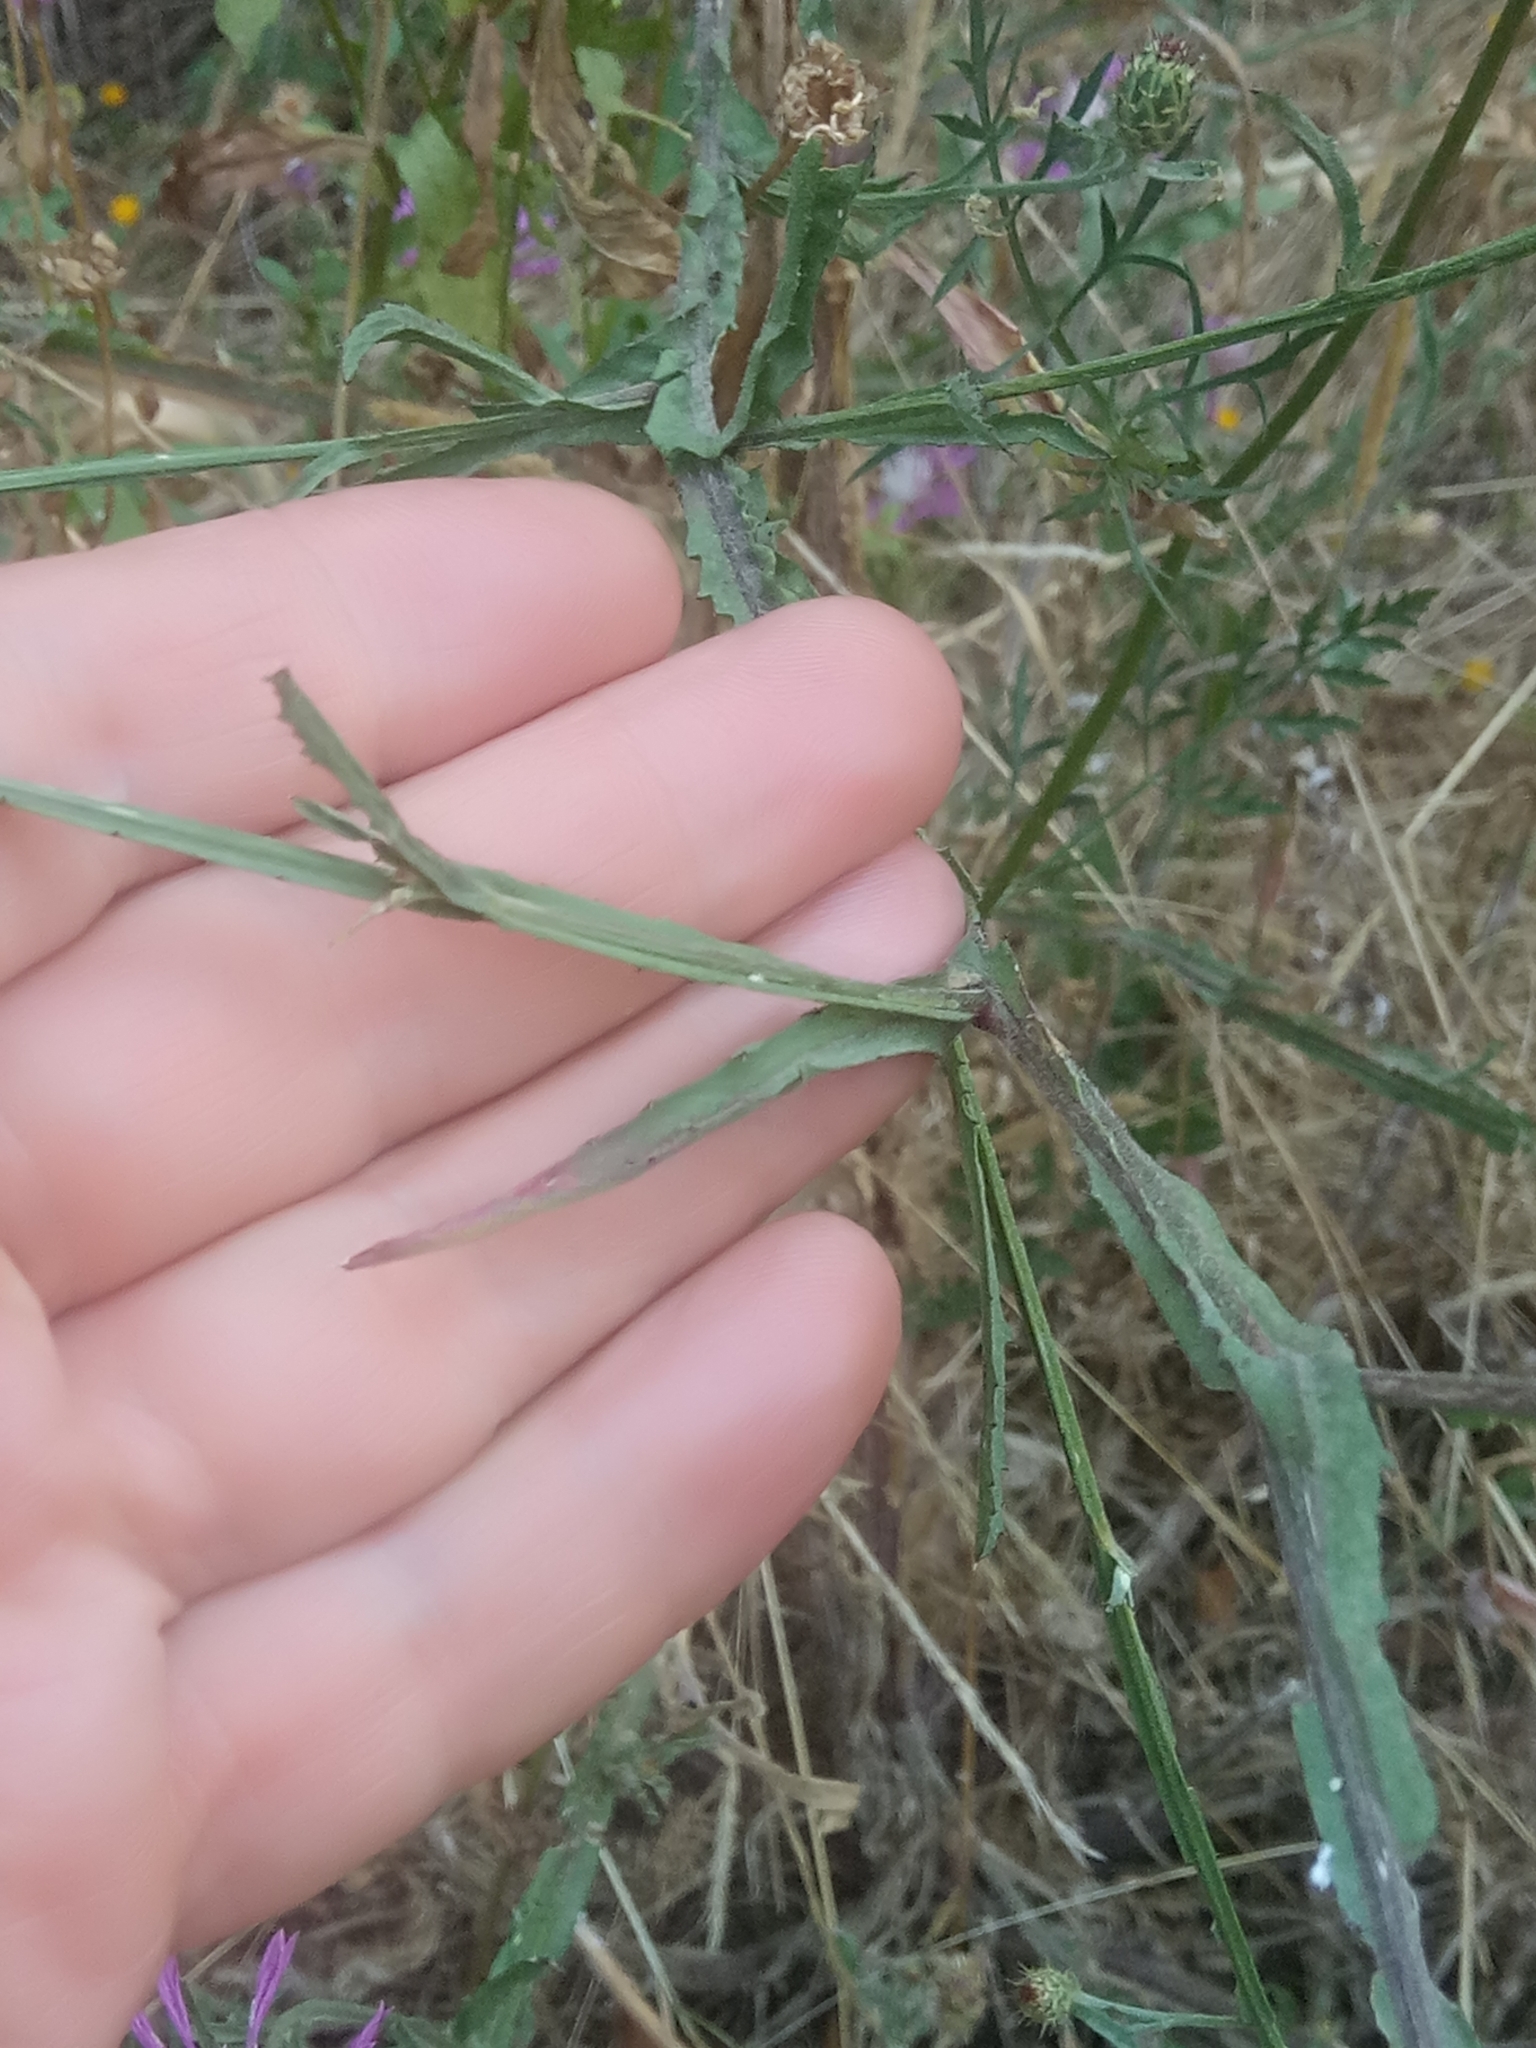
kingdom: Plantae
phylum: Tracheophyta
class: Magnoliopsida
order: Asterales
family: Asteraceae
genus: Centaurea
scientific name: Centaurea napifolia
